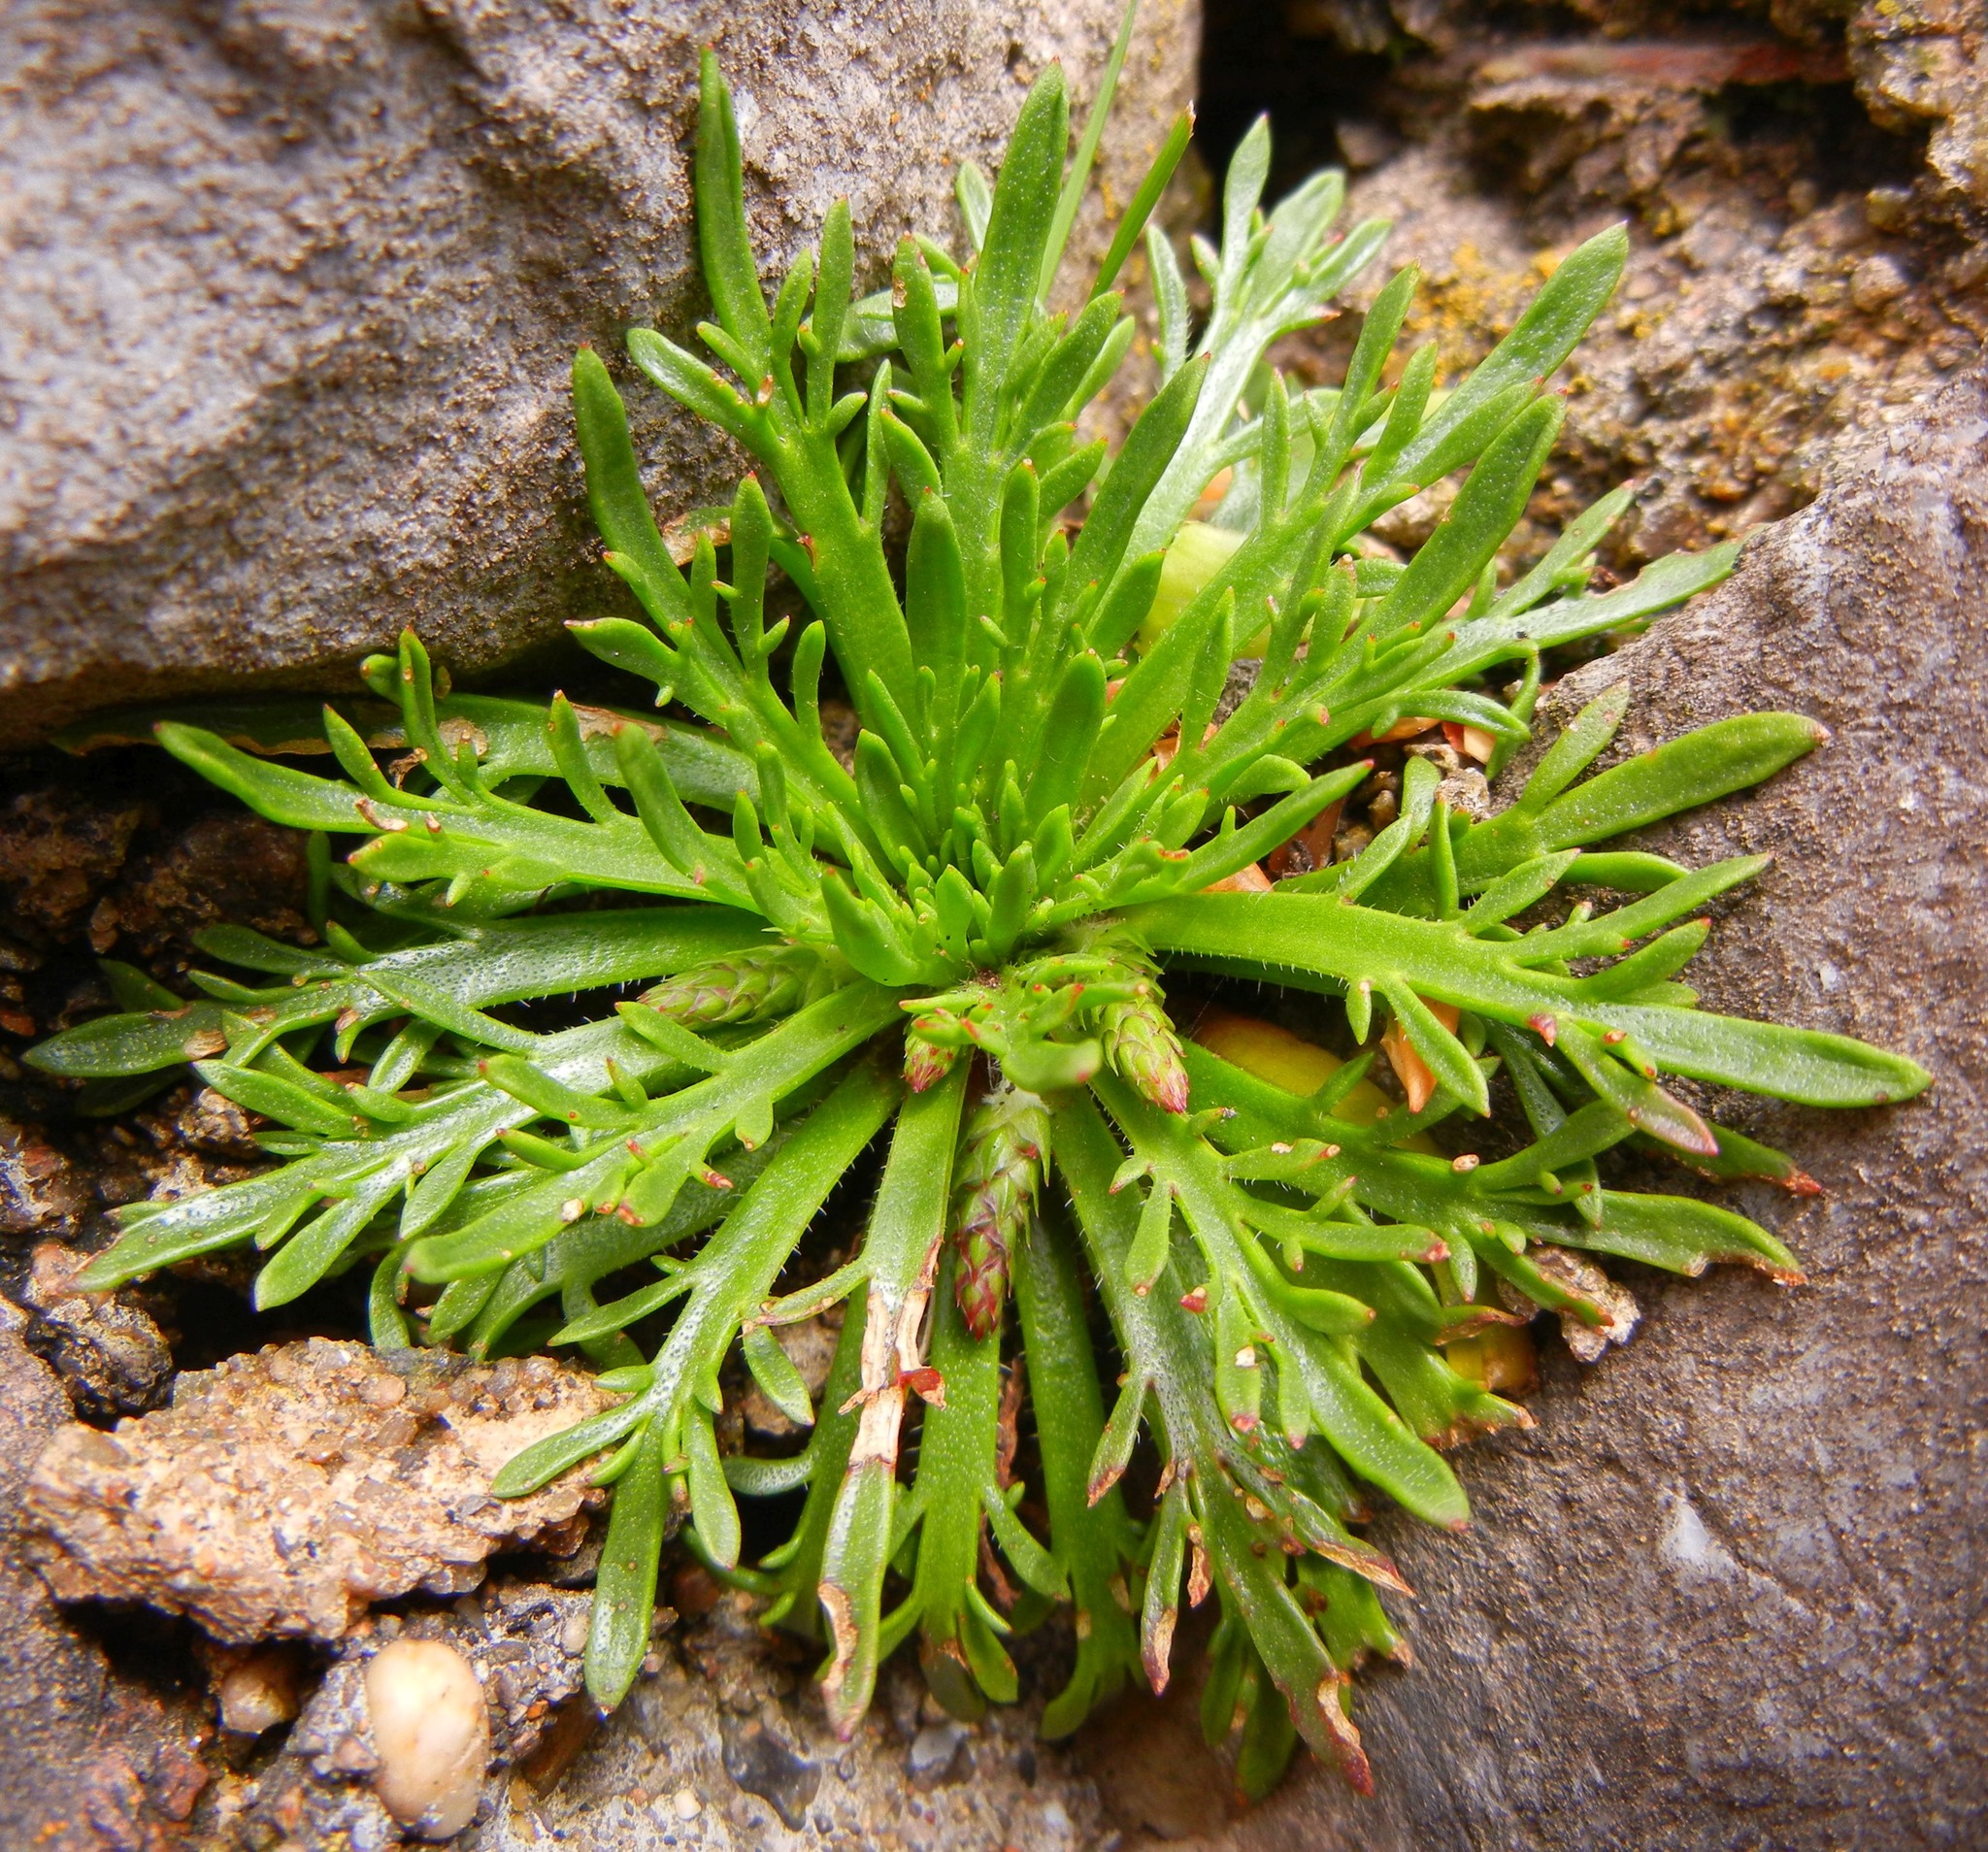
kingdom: Plantae
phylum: Tracheophyta
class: Magnoliopsida
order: Lamiales
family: Plantaginaceae
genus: Plantago
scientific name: Plantago coronopus
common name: Buck's-horn plantain
